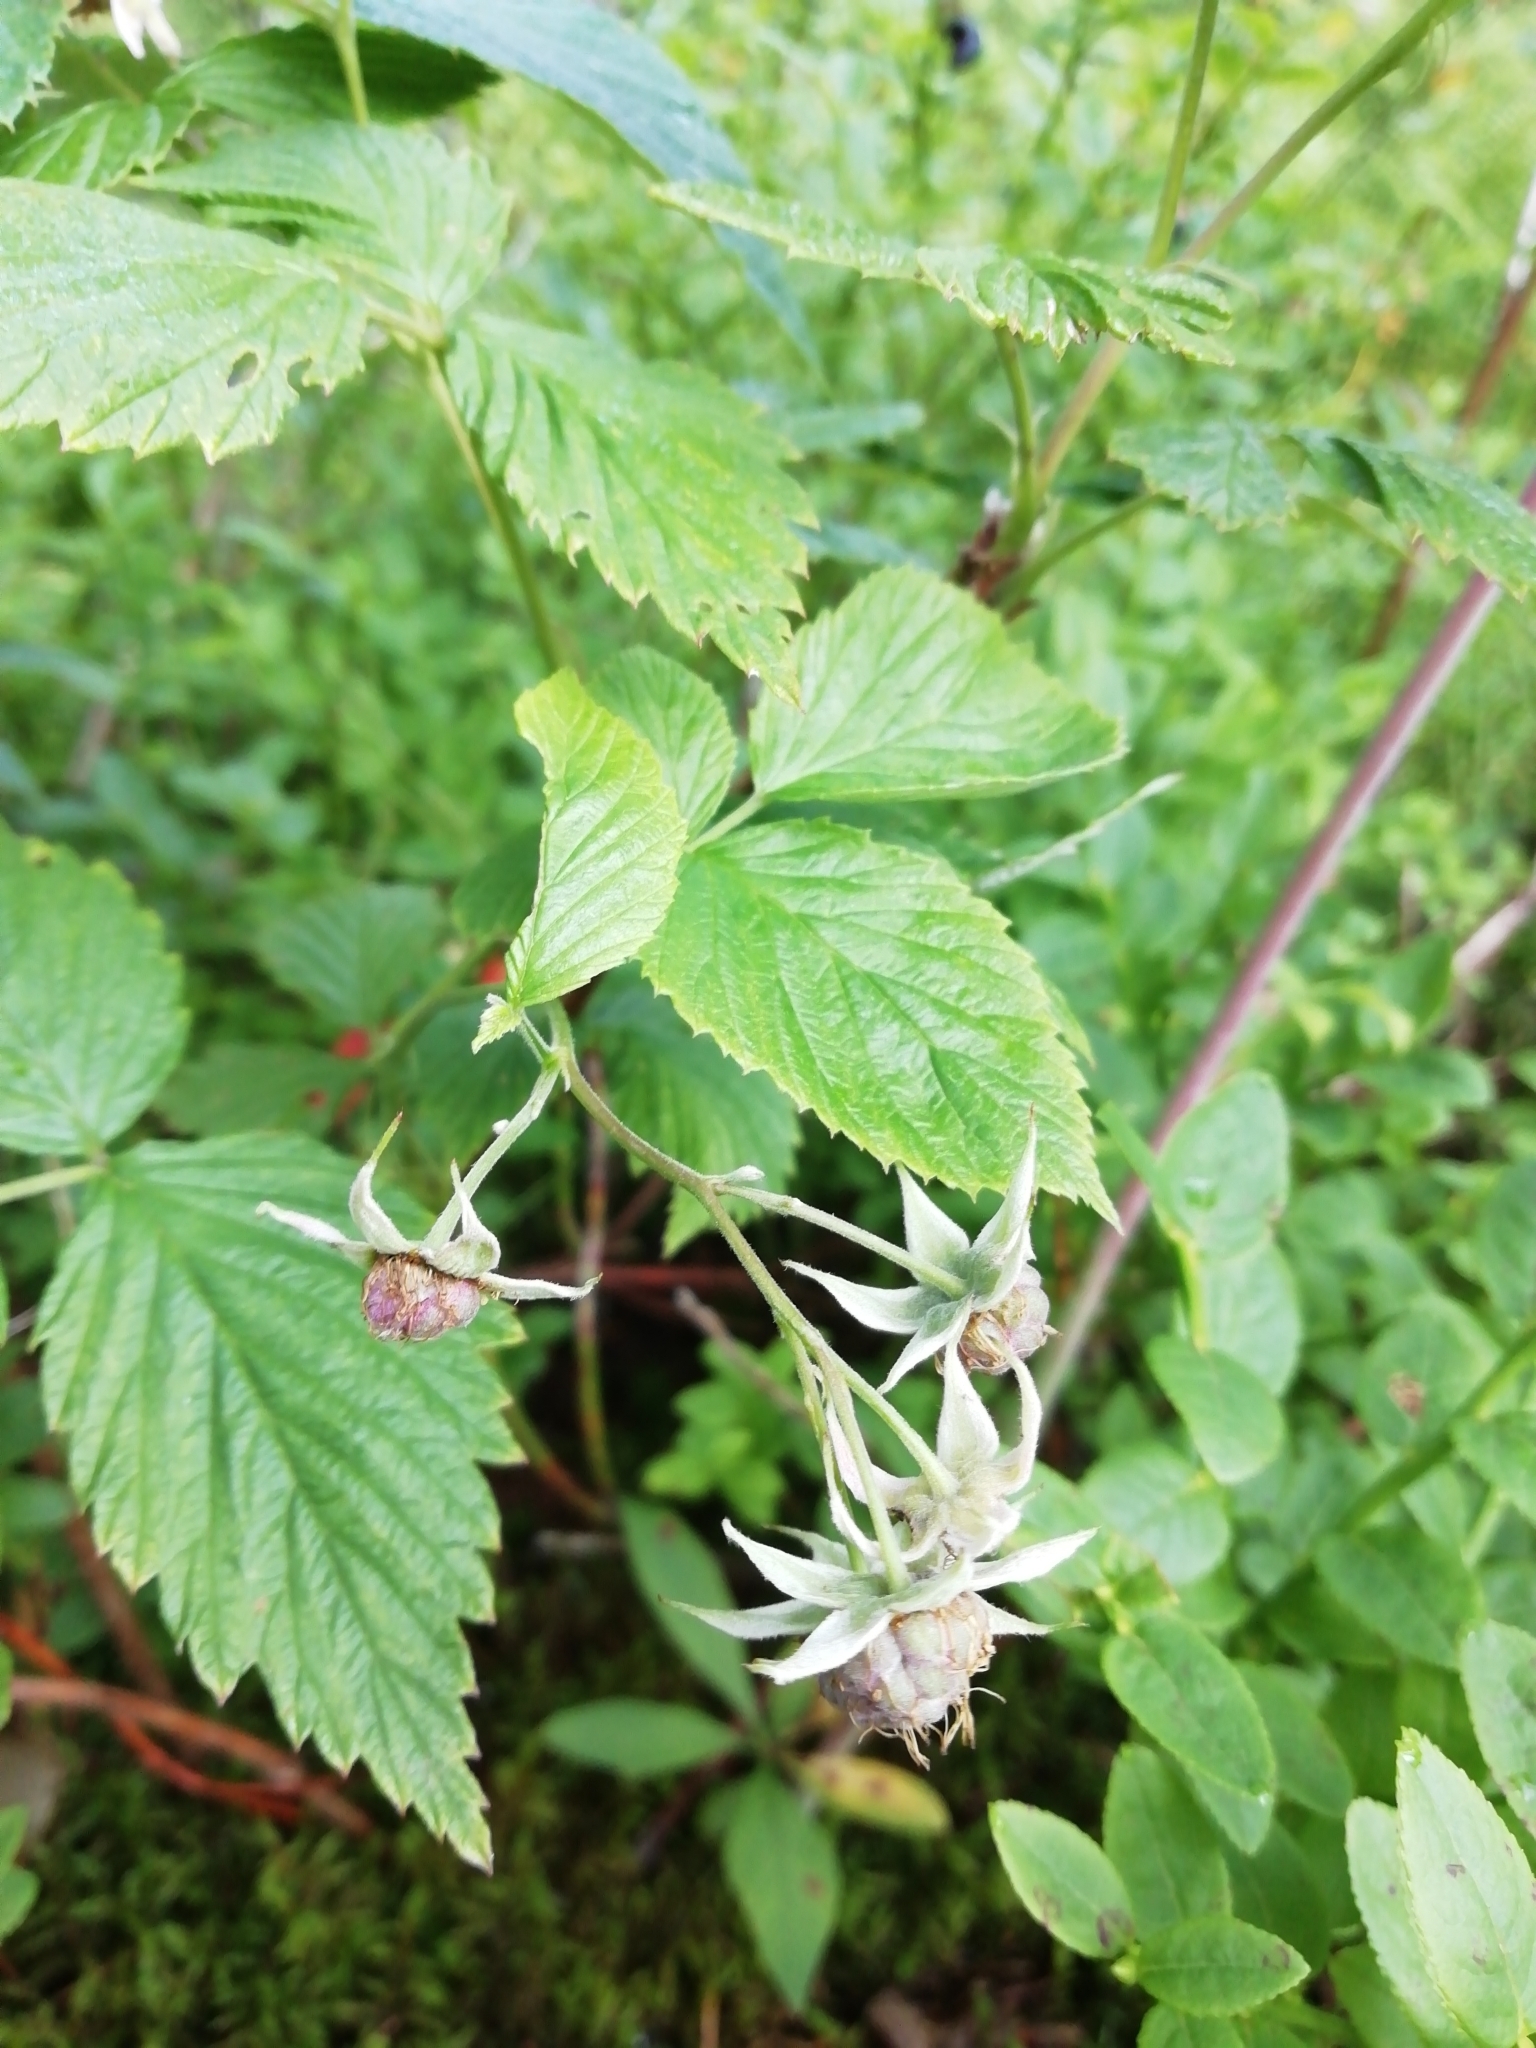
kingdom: Plantae
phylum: Tracheophyta
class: Magnoliopsida
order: Rosales
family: Rosaceae
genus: Rubus
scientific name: Rubus idaeus
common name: Raspberry
